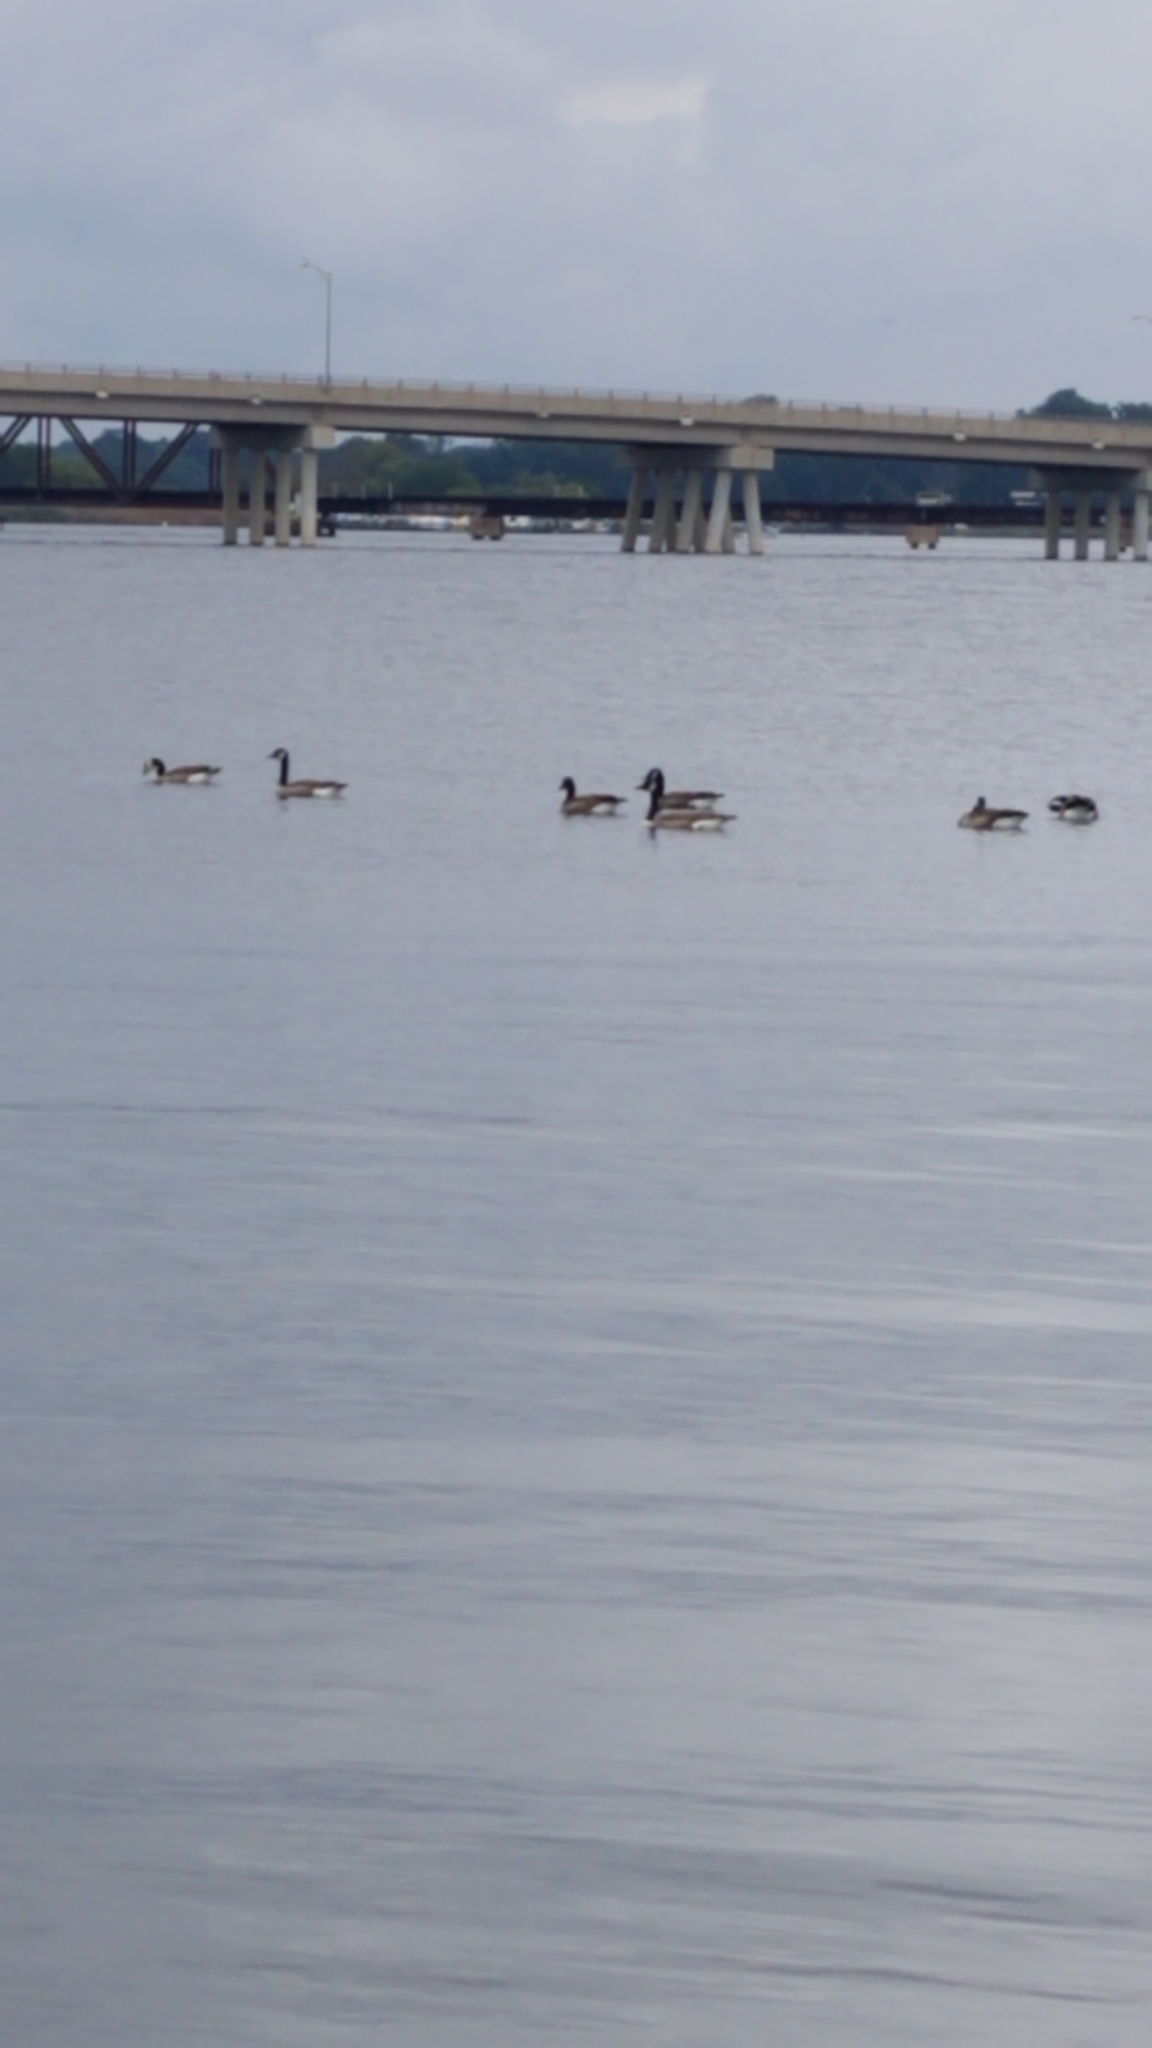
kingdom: Animalia
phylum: Chordata
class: Aves
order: Anseriformes
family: Anatidae
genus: Branta
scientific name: Branta canadensis
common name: Canada goose
